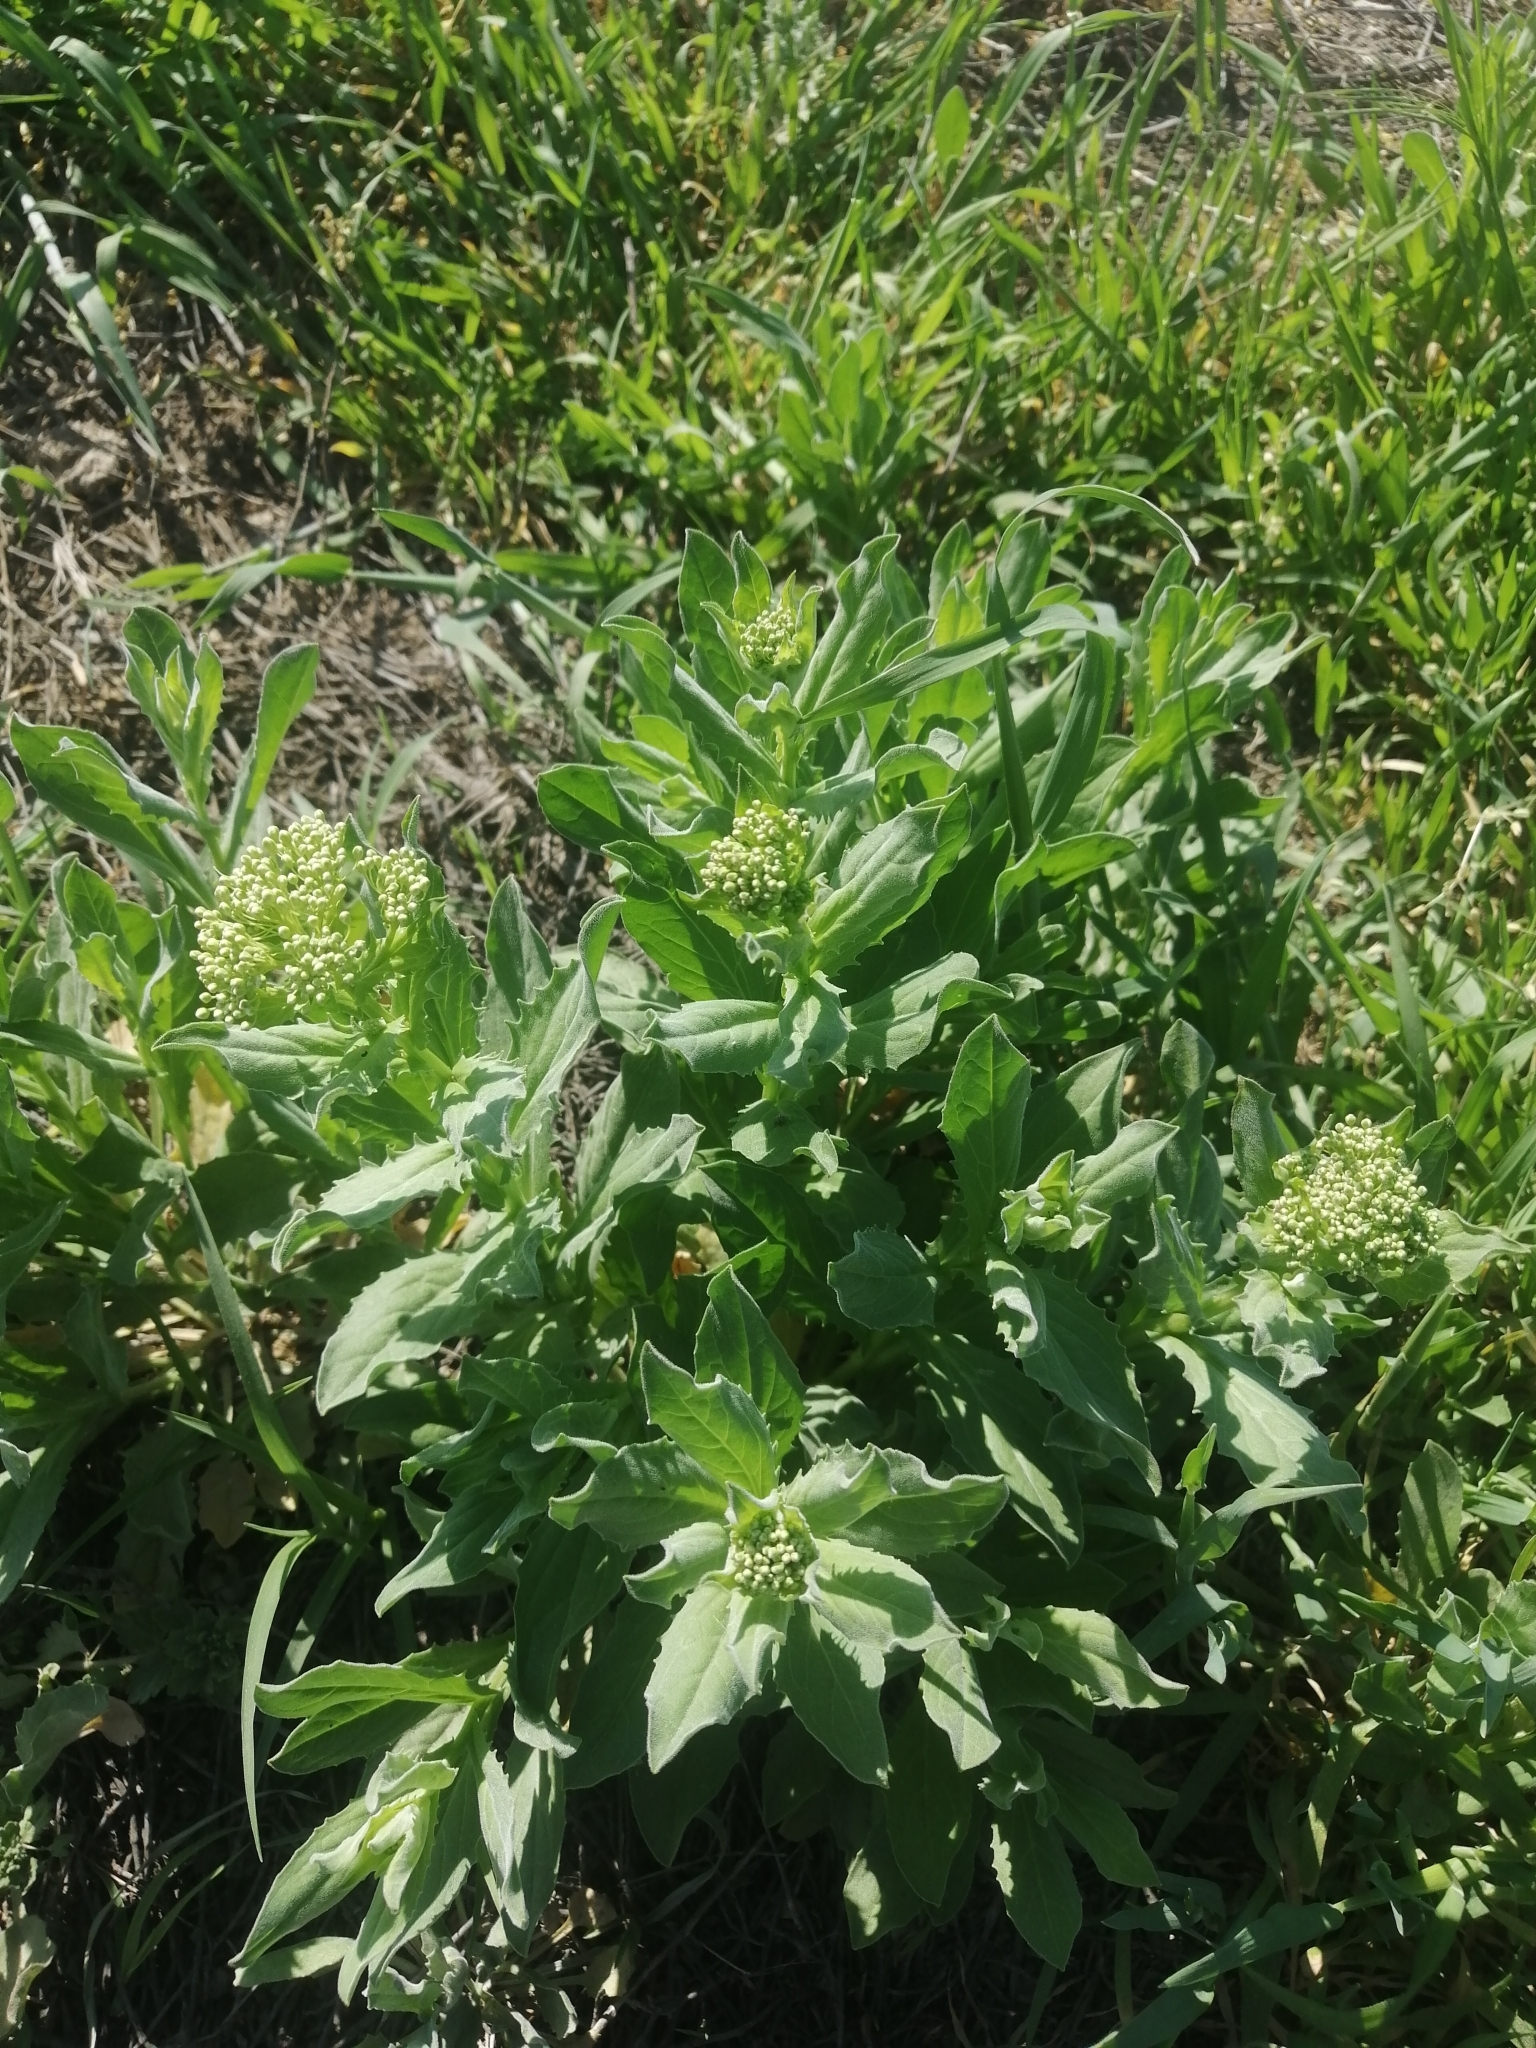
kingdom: Plantae
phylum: Tracheophyta
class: Magnoliopsida
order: Brassicales
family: Brassicaceae
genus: Lepidium
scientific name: Lepidium draba
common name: Hoary cress
